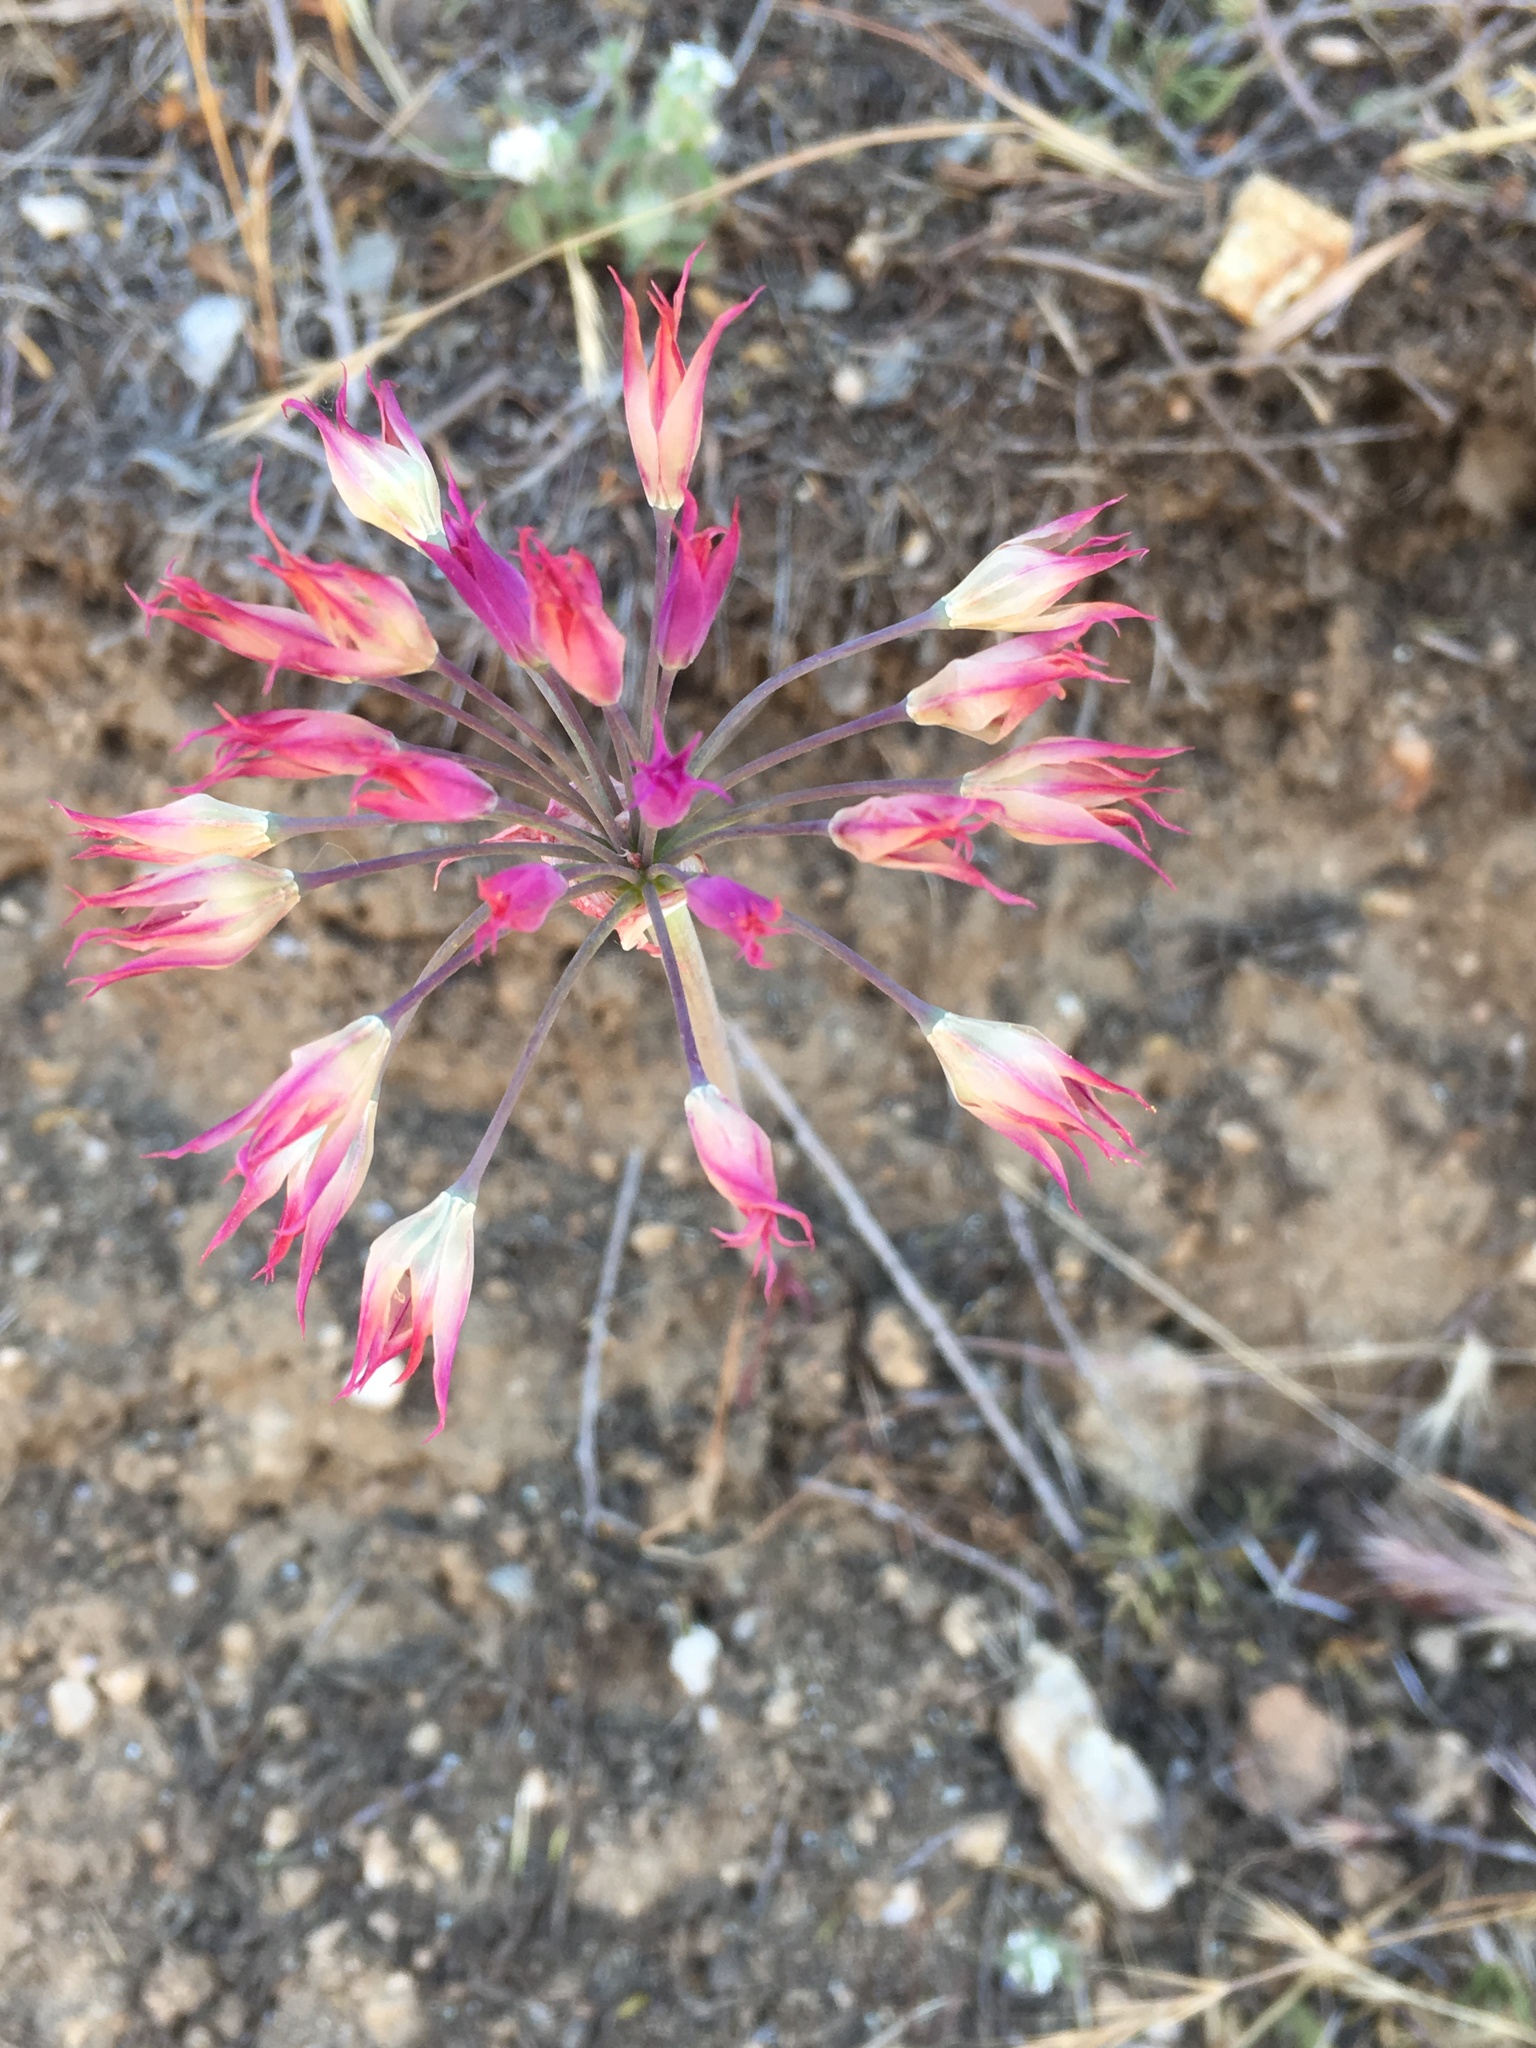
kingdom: Plantae
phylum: Tracheophyta
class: Liliopsida
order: Asparagales
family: Amaryllidaceae
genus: Allium
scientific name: Allium peninsulare
